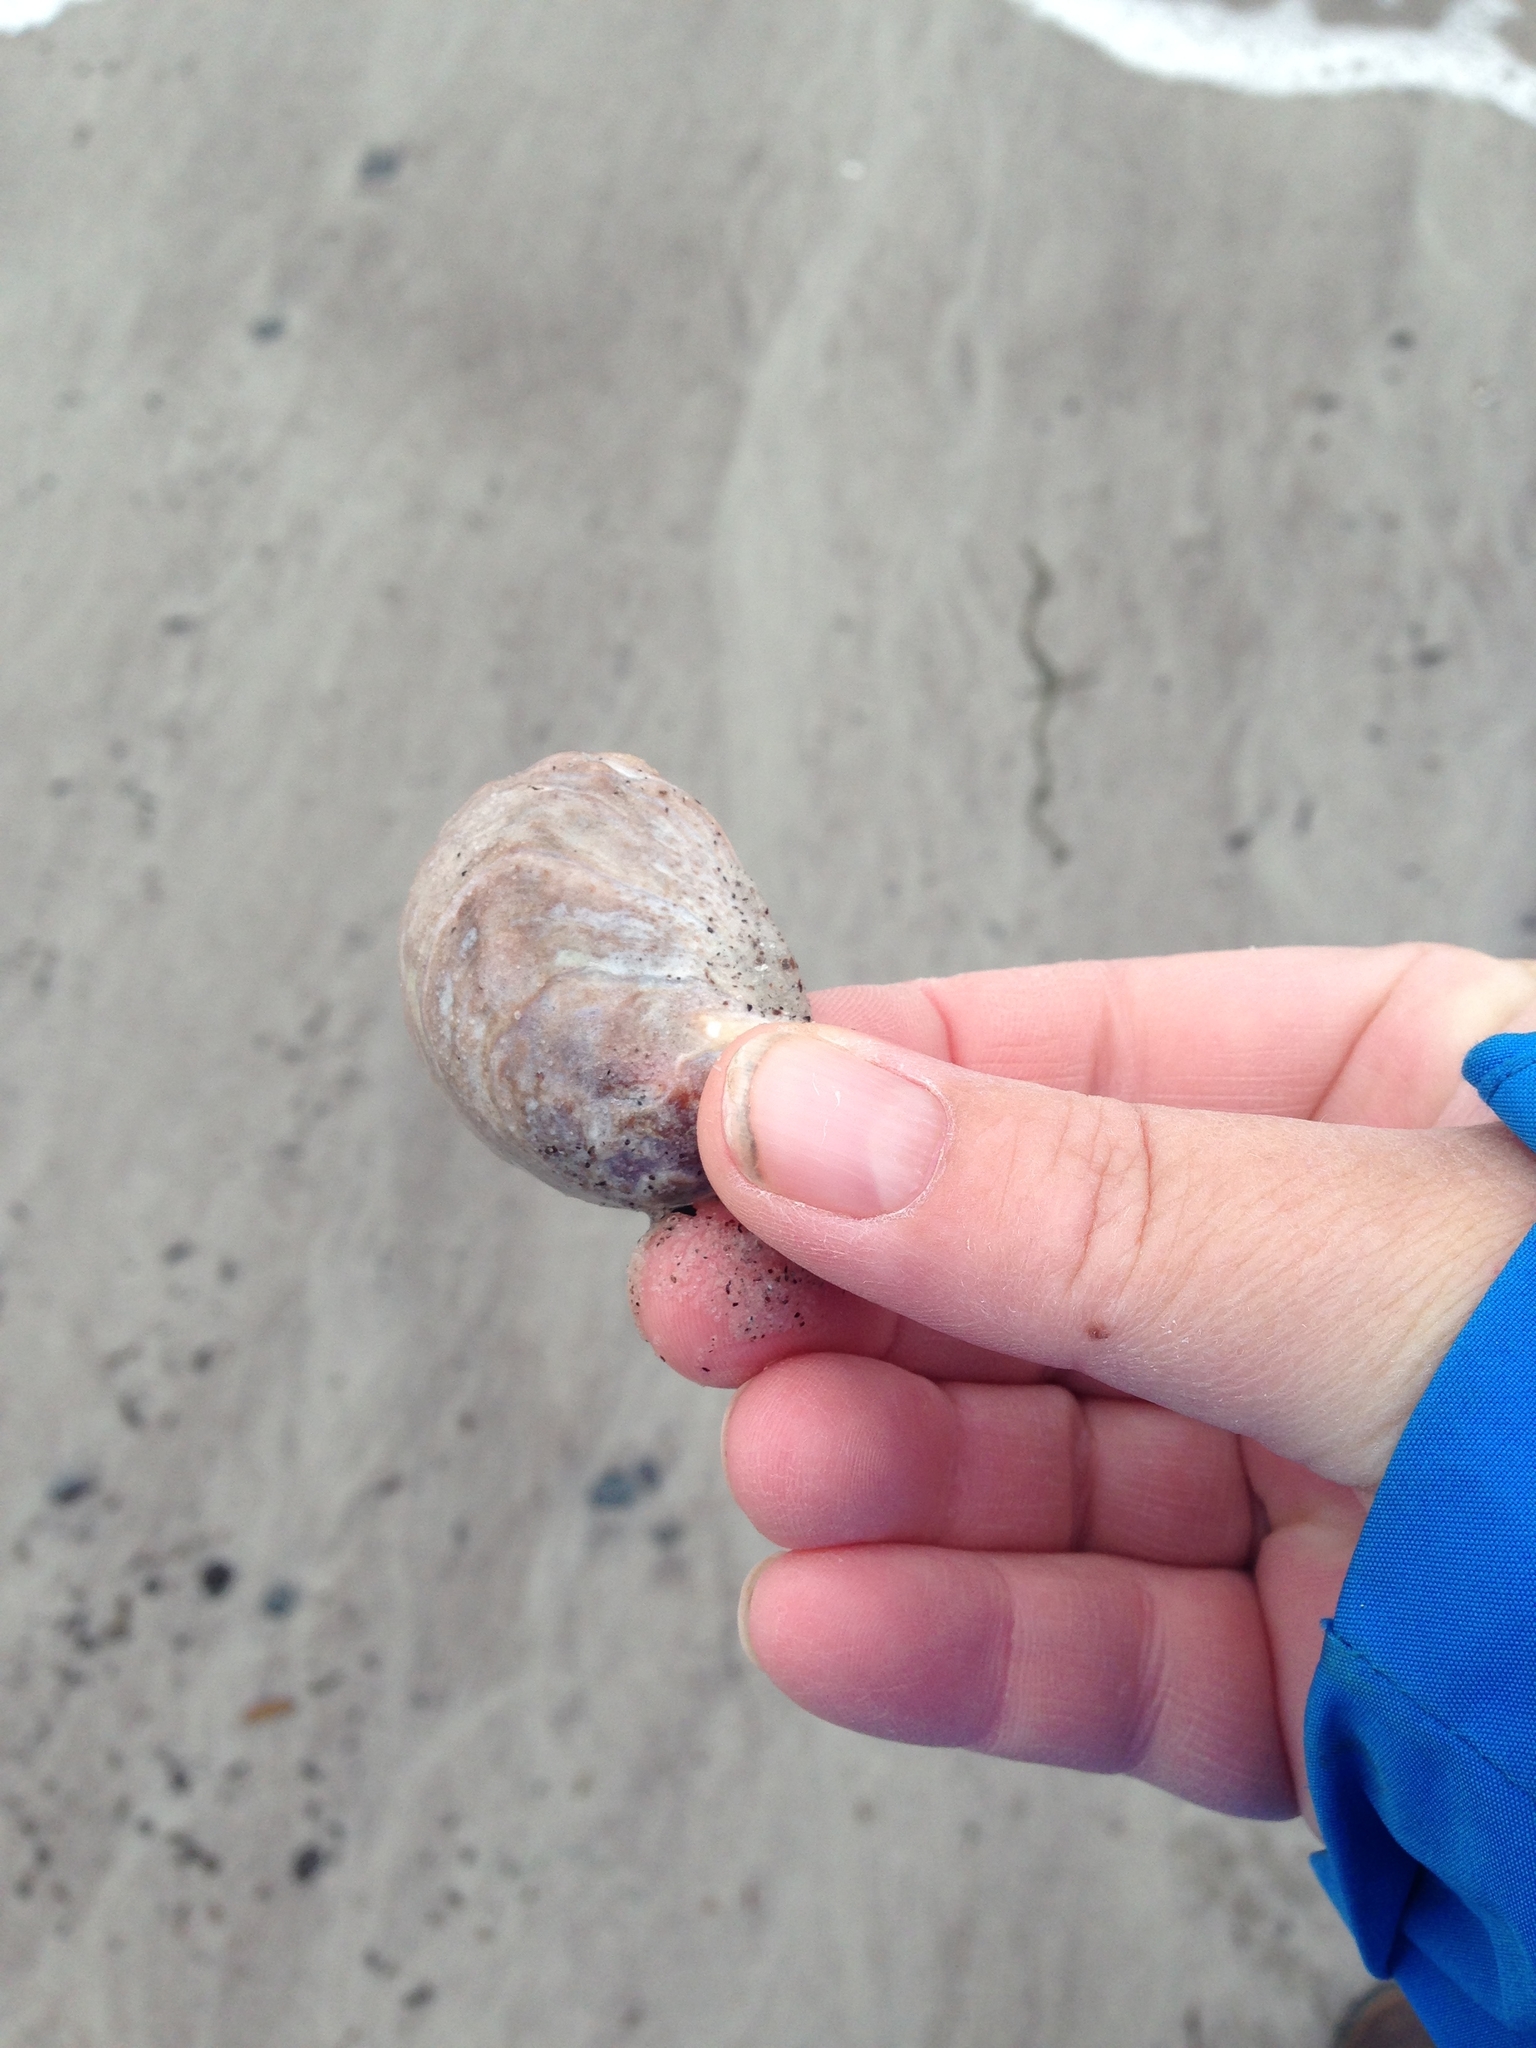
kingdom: Animalia
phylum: Mollusca
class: Gastropoda
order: Littorinimorpha
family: Calyptraeidae
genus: Crepidula
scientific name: Crepidula fornicata
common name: Slipper limpet
